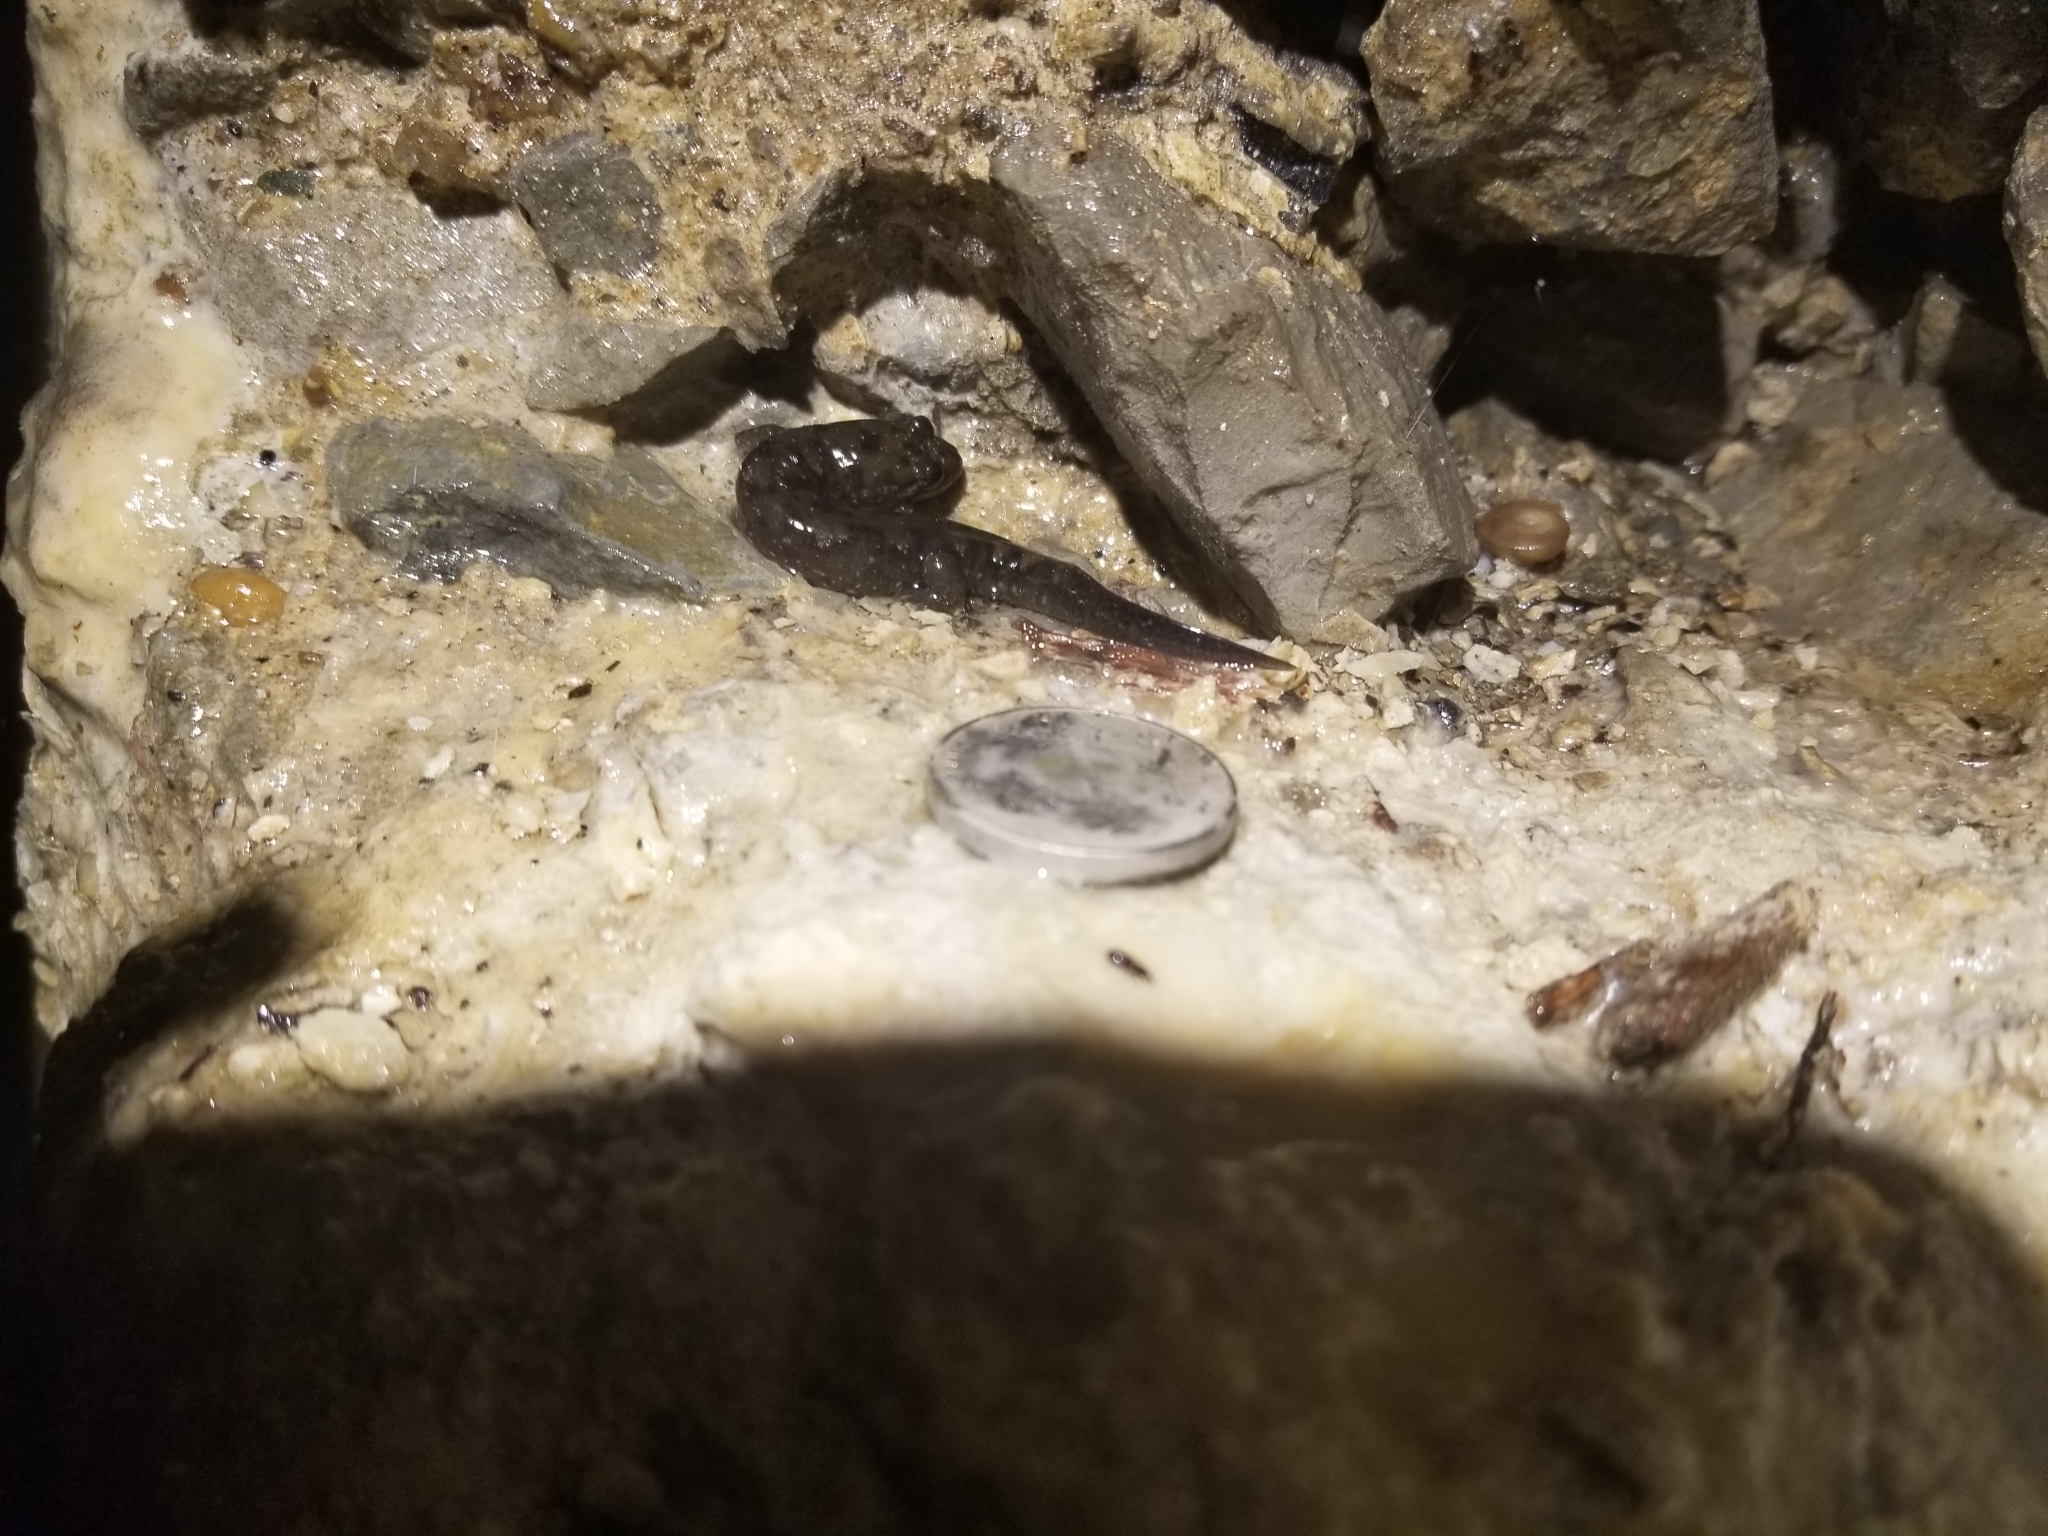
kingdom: Animalia
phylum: Chordata
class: Amphibia
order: Caudata
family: Plethodontidae
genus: Desmognathus
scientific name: Desmognathus monticola
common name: Seal salamander
